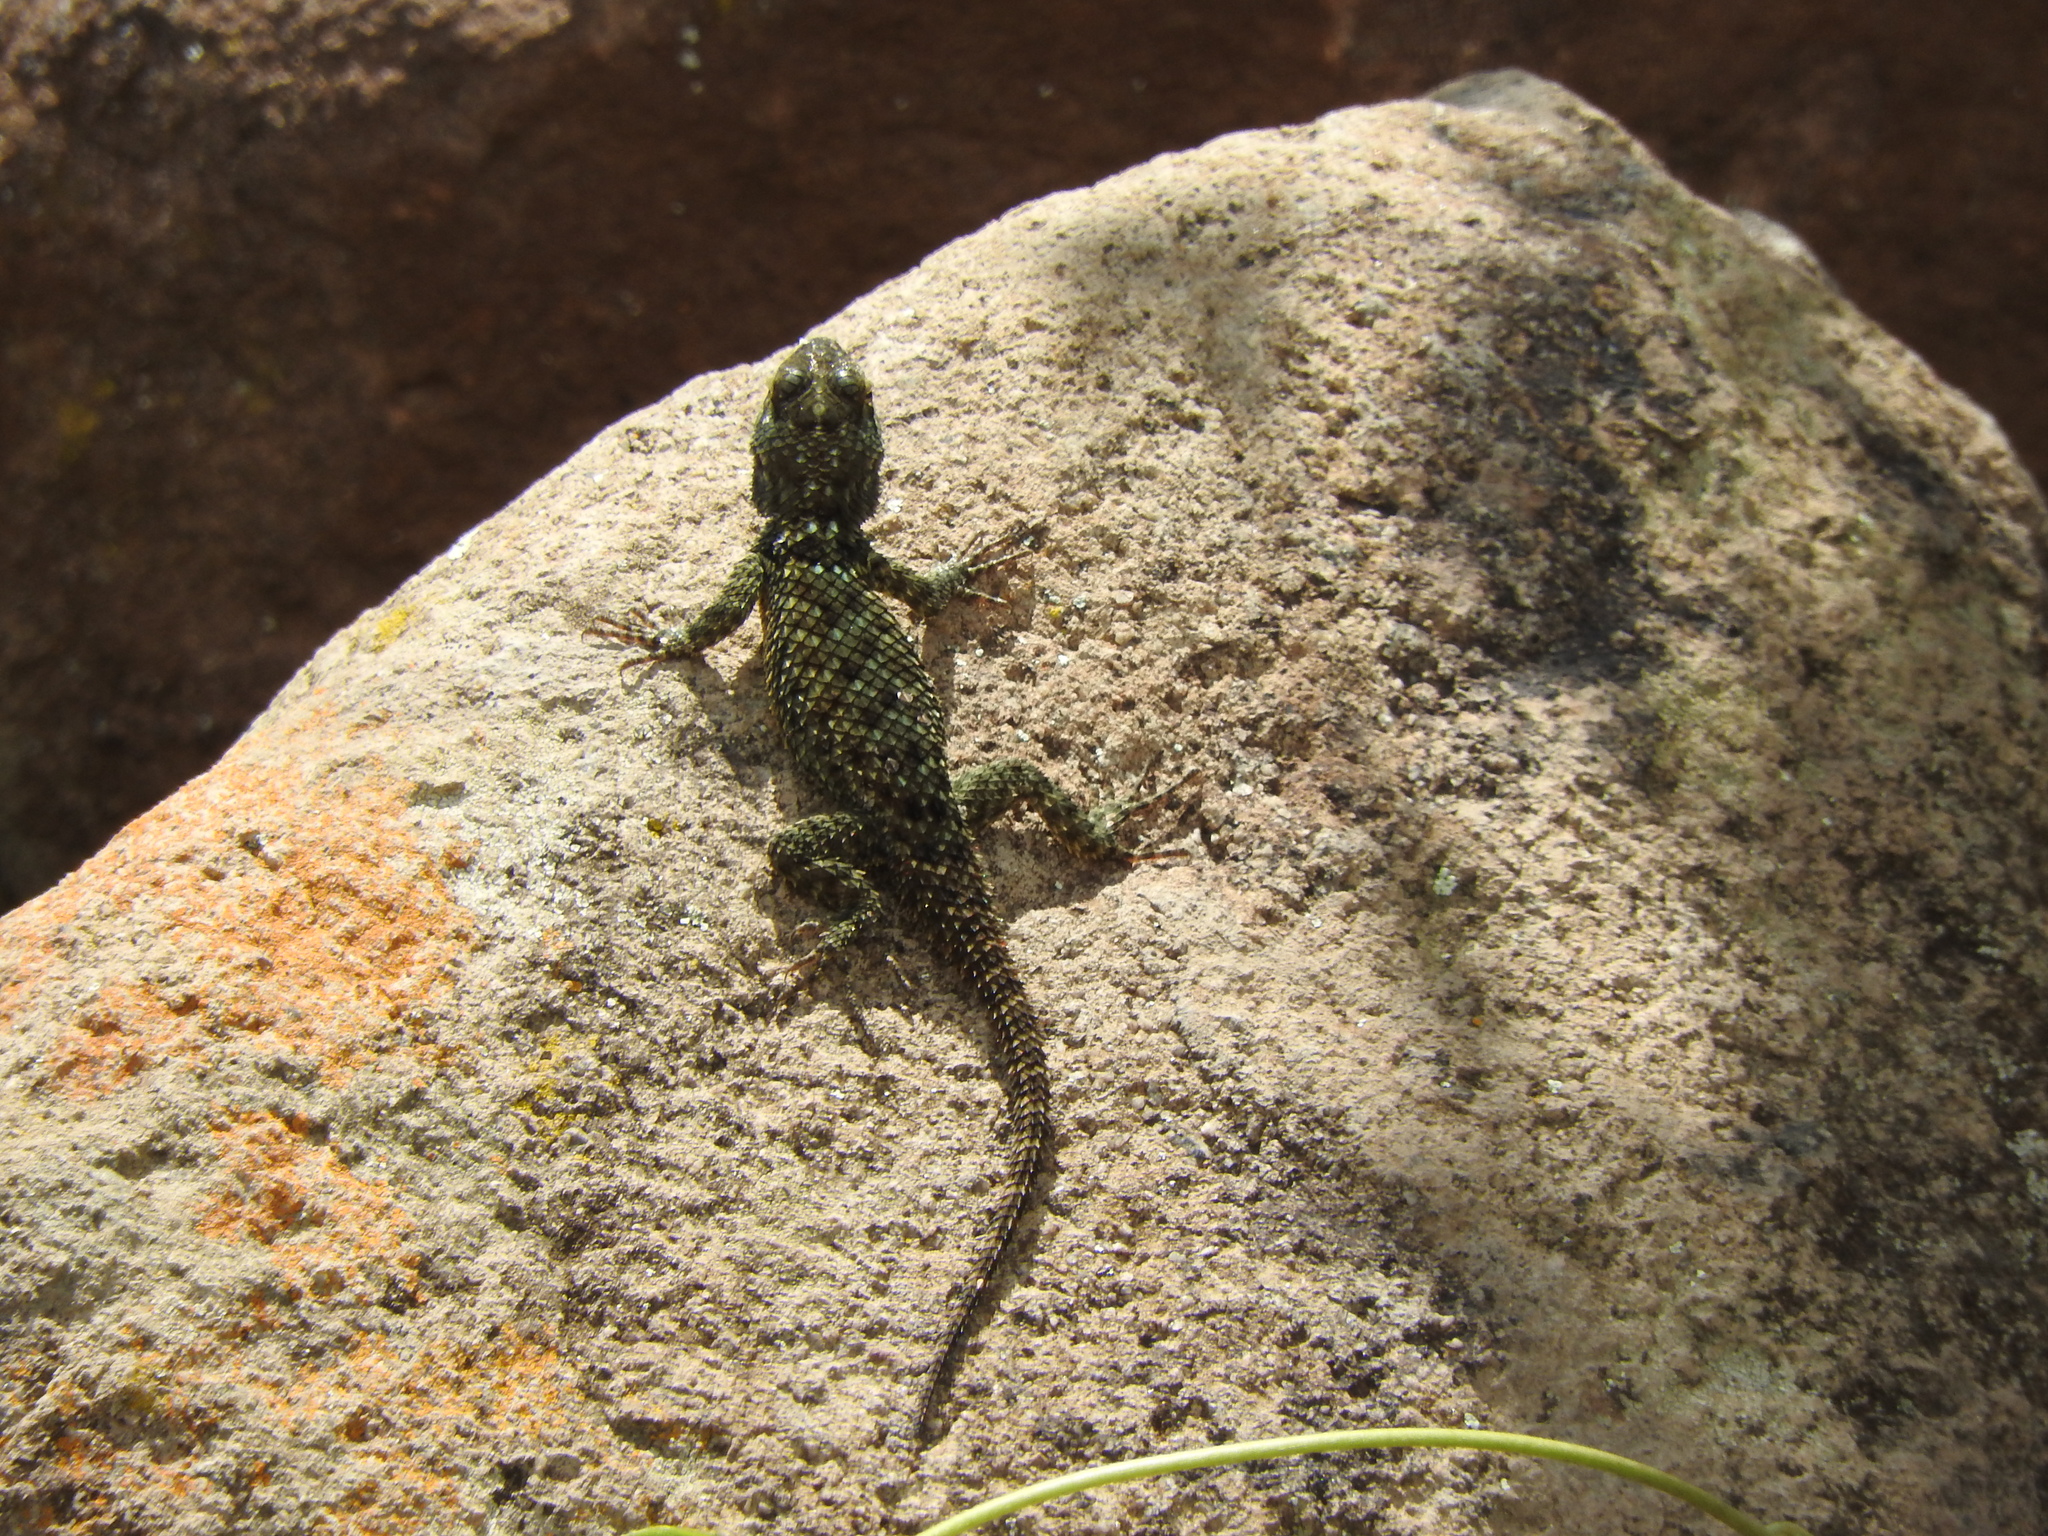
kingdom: Animalia
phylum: Chordata
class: Squamata
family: Phrynosomatidae
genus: Sceloporus
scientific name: Sceloporus torquatus
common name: Central plateau torquate lizard [melanogaster]
